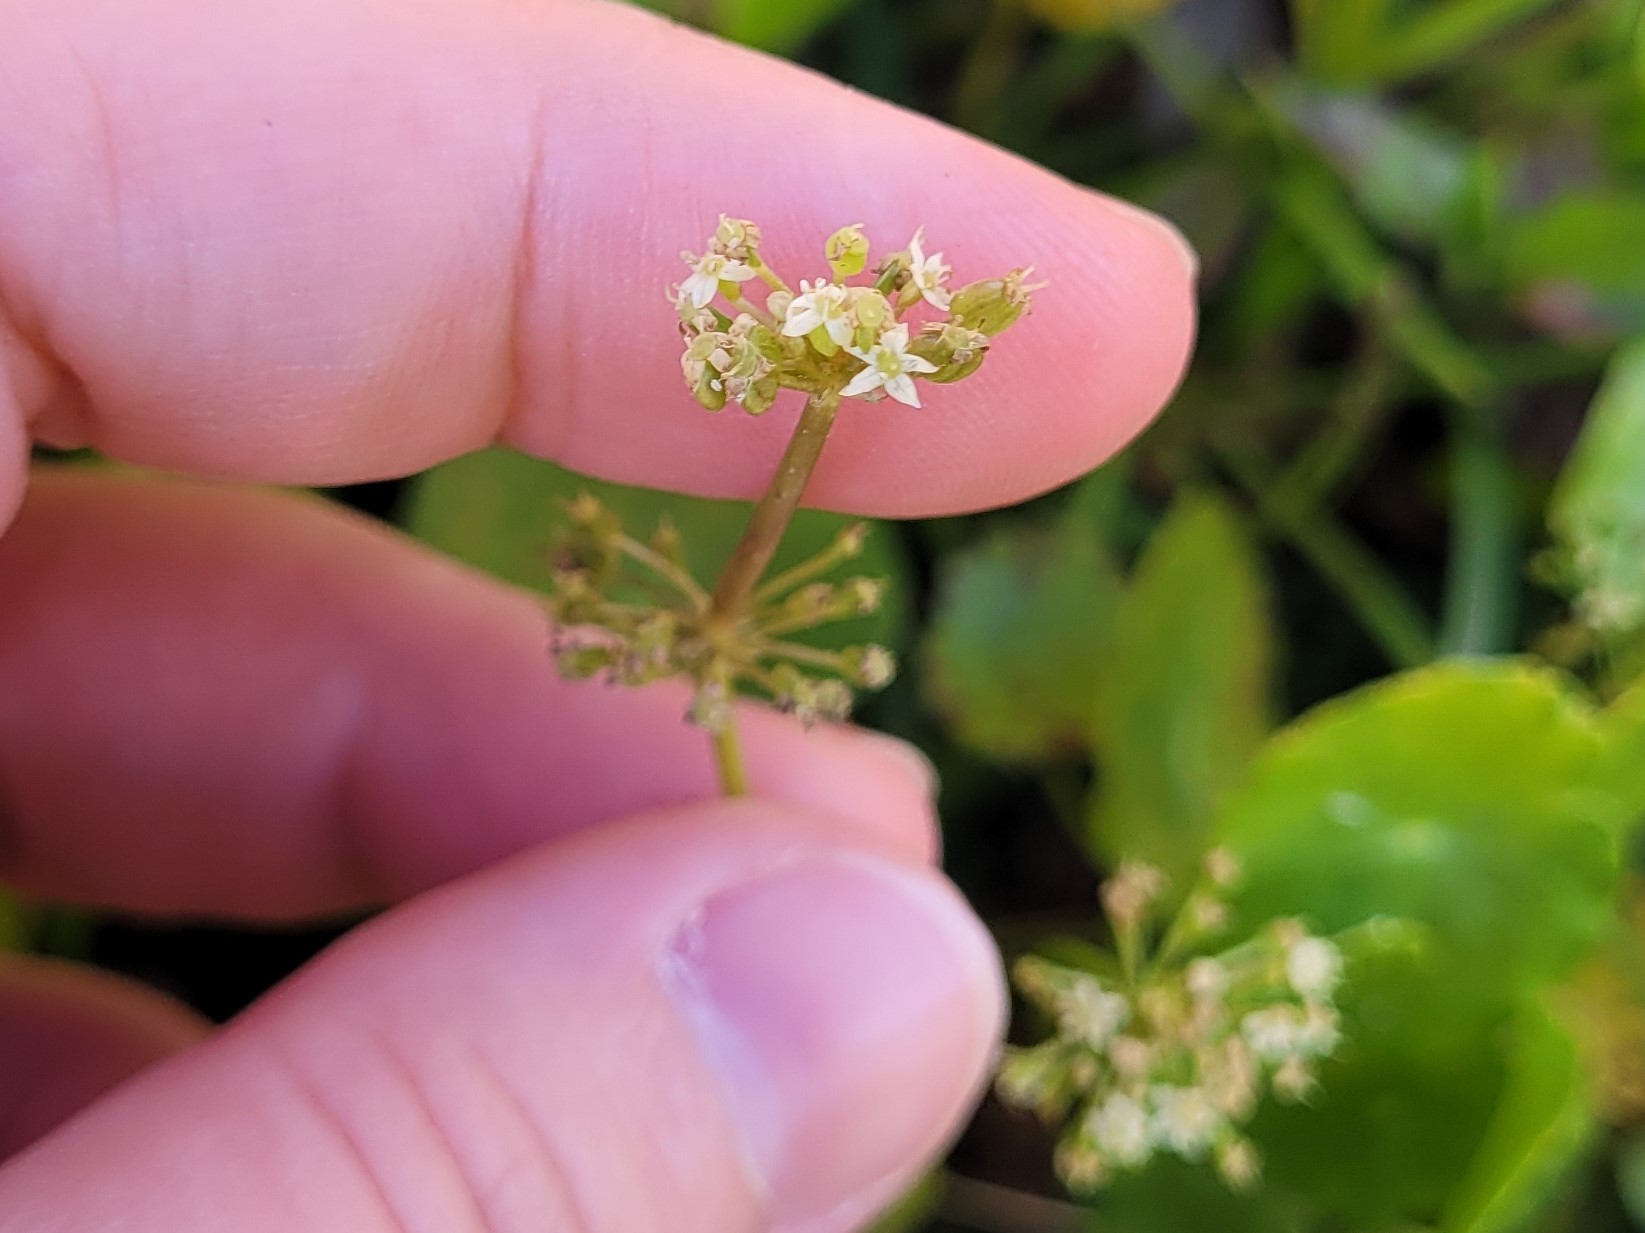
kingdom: Plantae
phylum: Tracheophyta
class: Magnoliopsida
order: Apiales
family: Araliaceae
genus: Hydrocotyle
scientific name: Hydrocotyle prolifera
